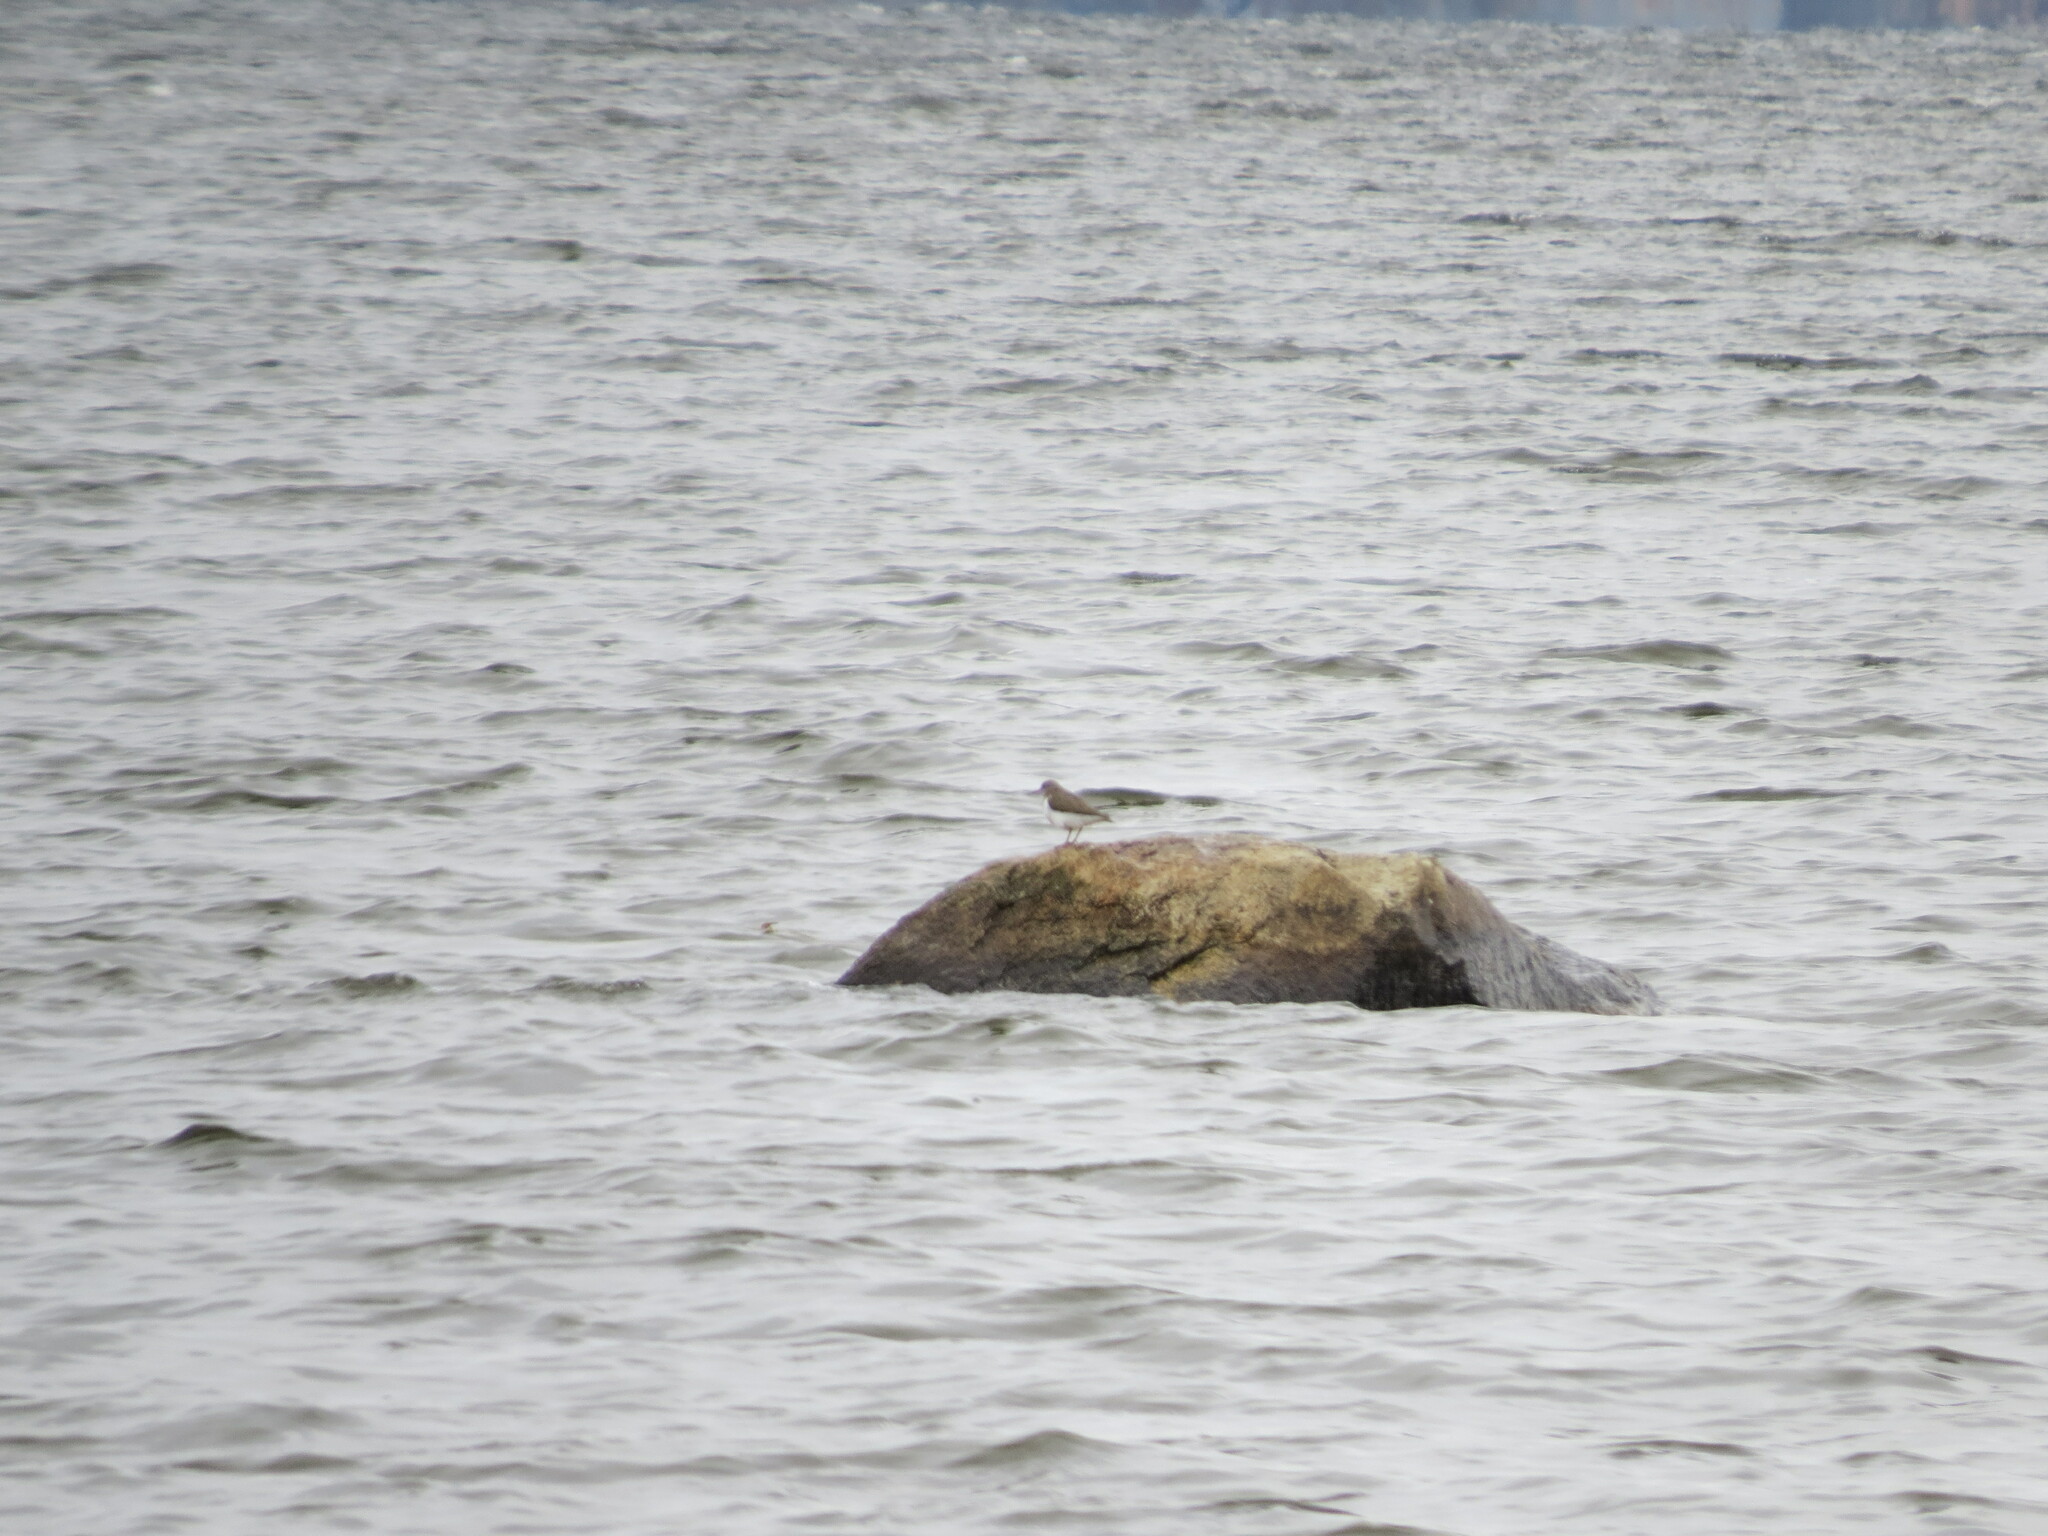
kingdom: Animalia
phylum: Chordata
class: Aves
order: Charadriiformes
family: Scolopacidae
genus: Actitis
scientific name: Actitis hypoleucos
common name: Common sandpiper
